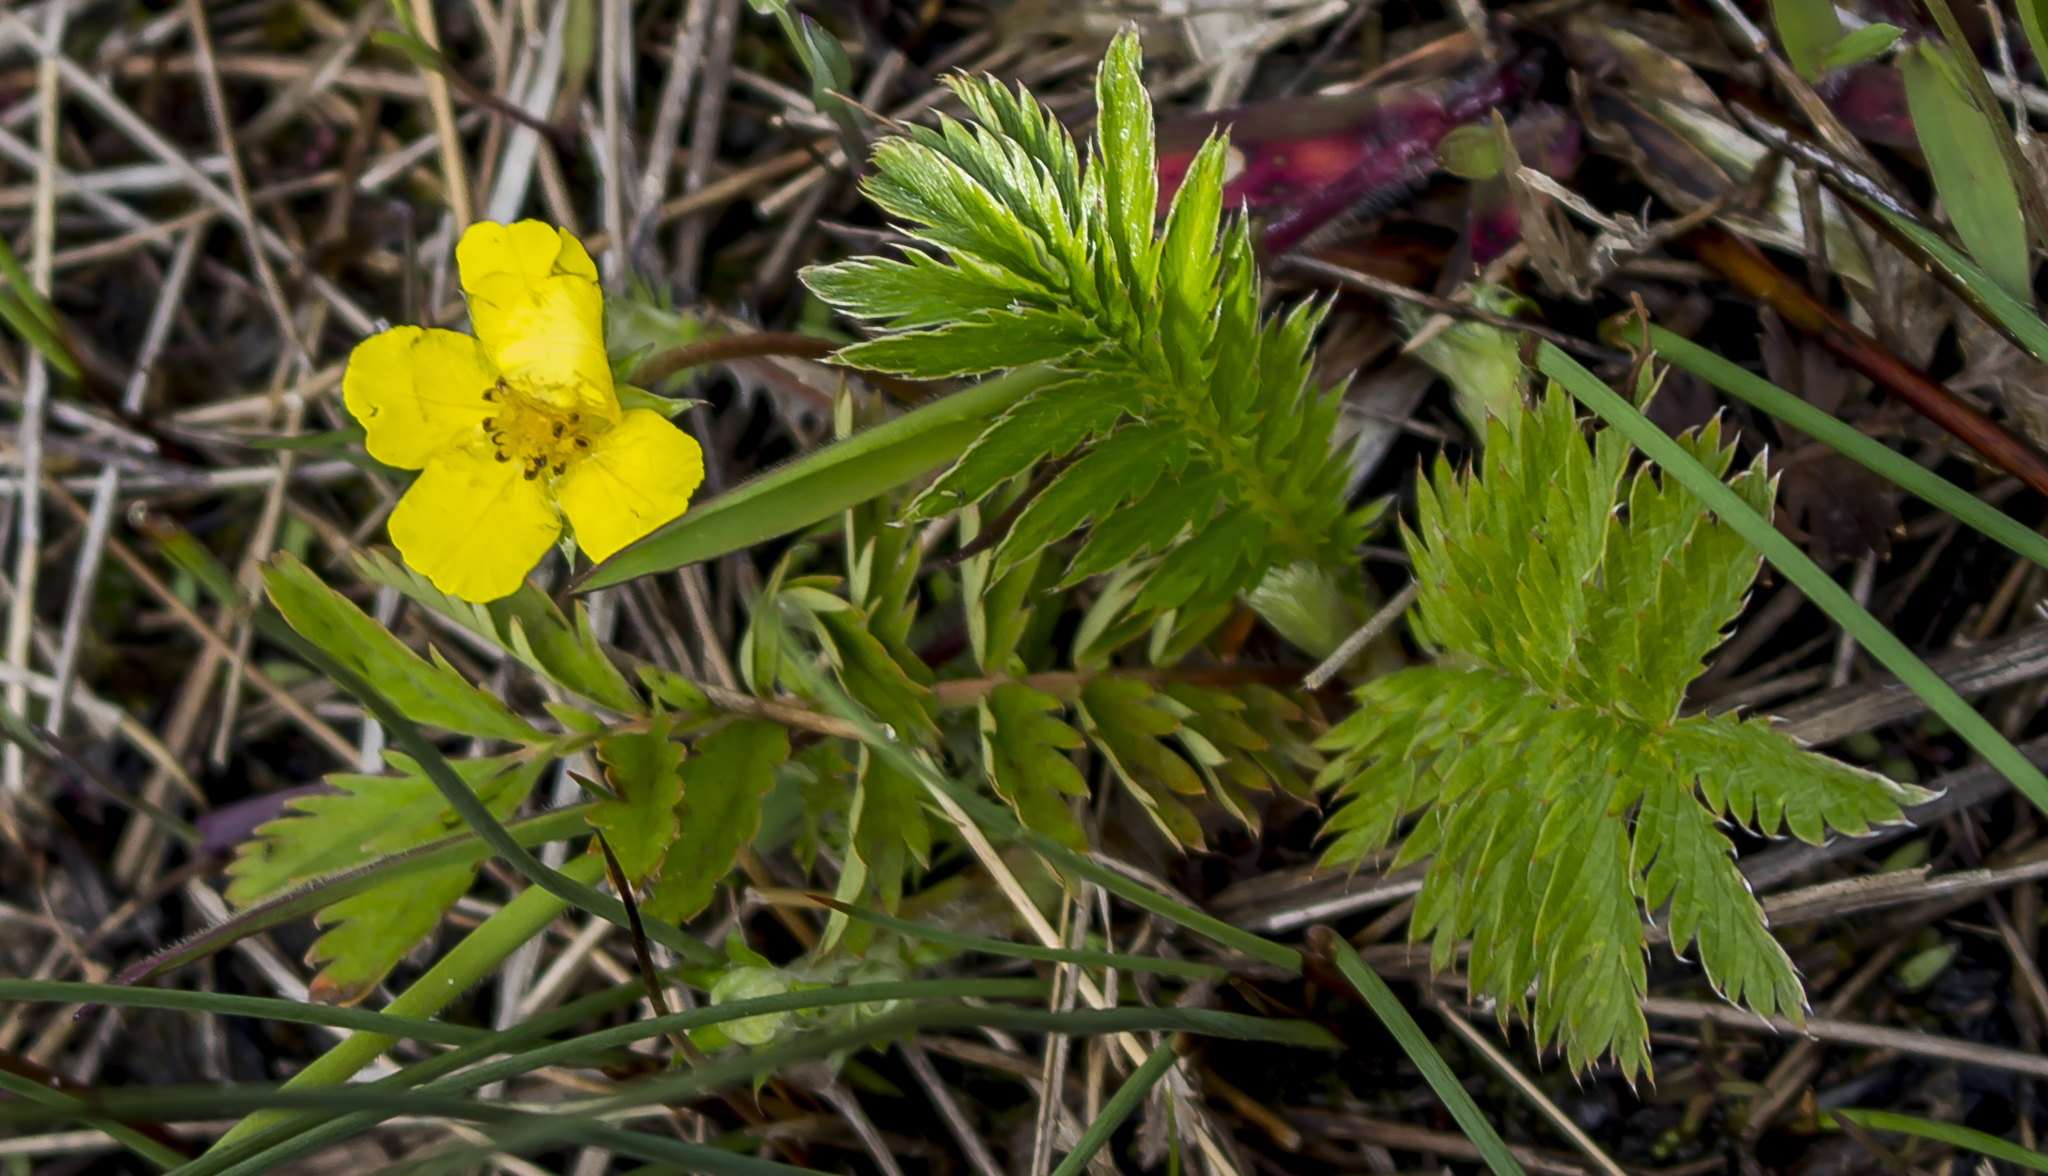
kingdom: Plantae
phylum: Tracheophyta
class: Magnoliopsida
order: Rosales
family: Rosaceae
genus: Argentina
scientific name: Argentina anserina
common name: Common silverweed
